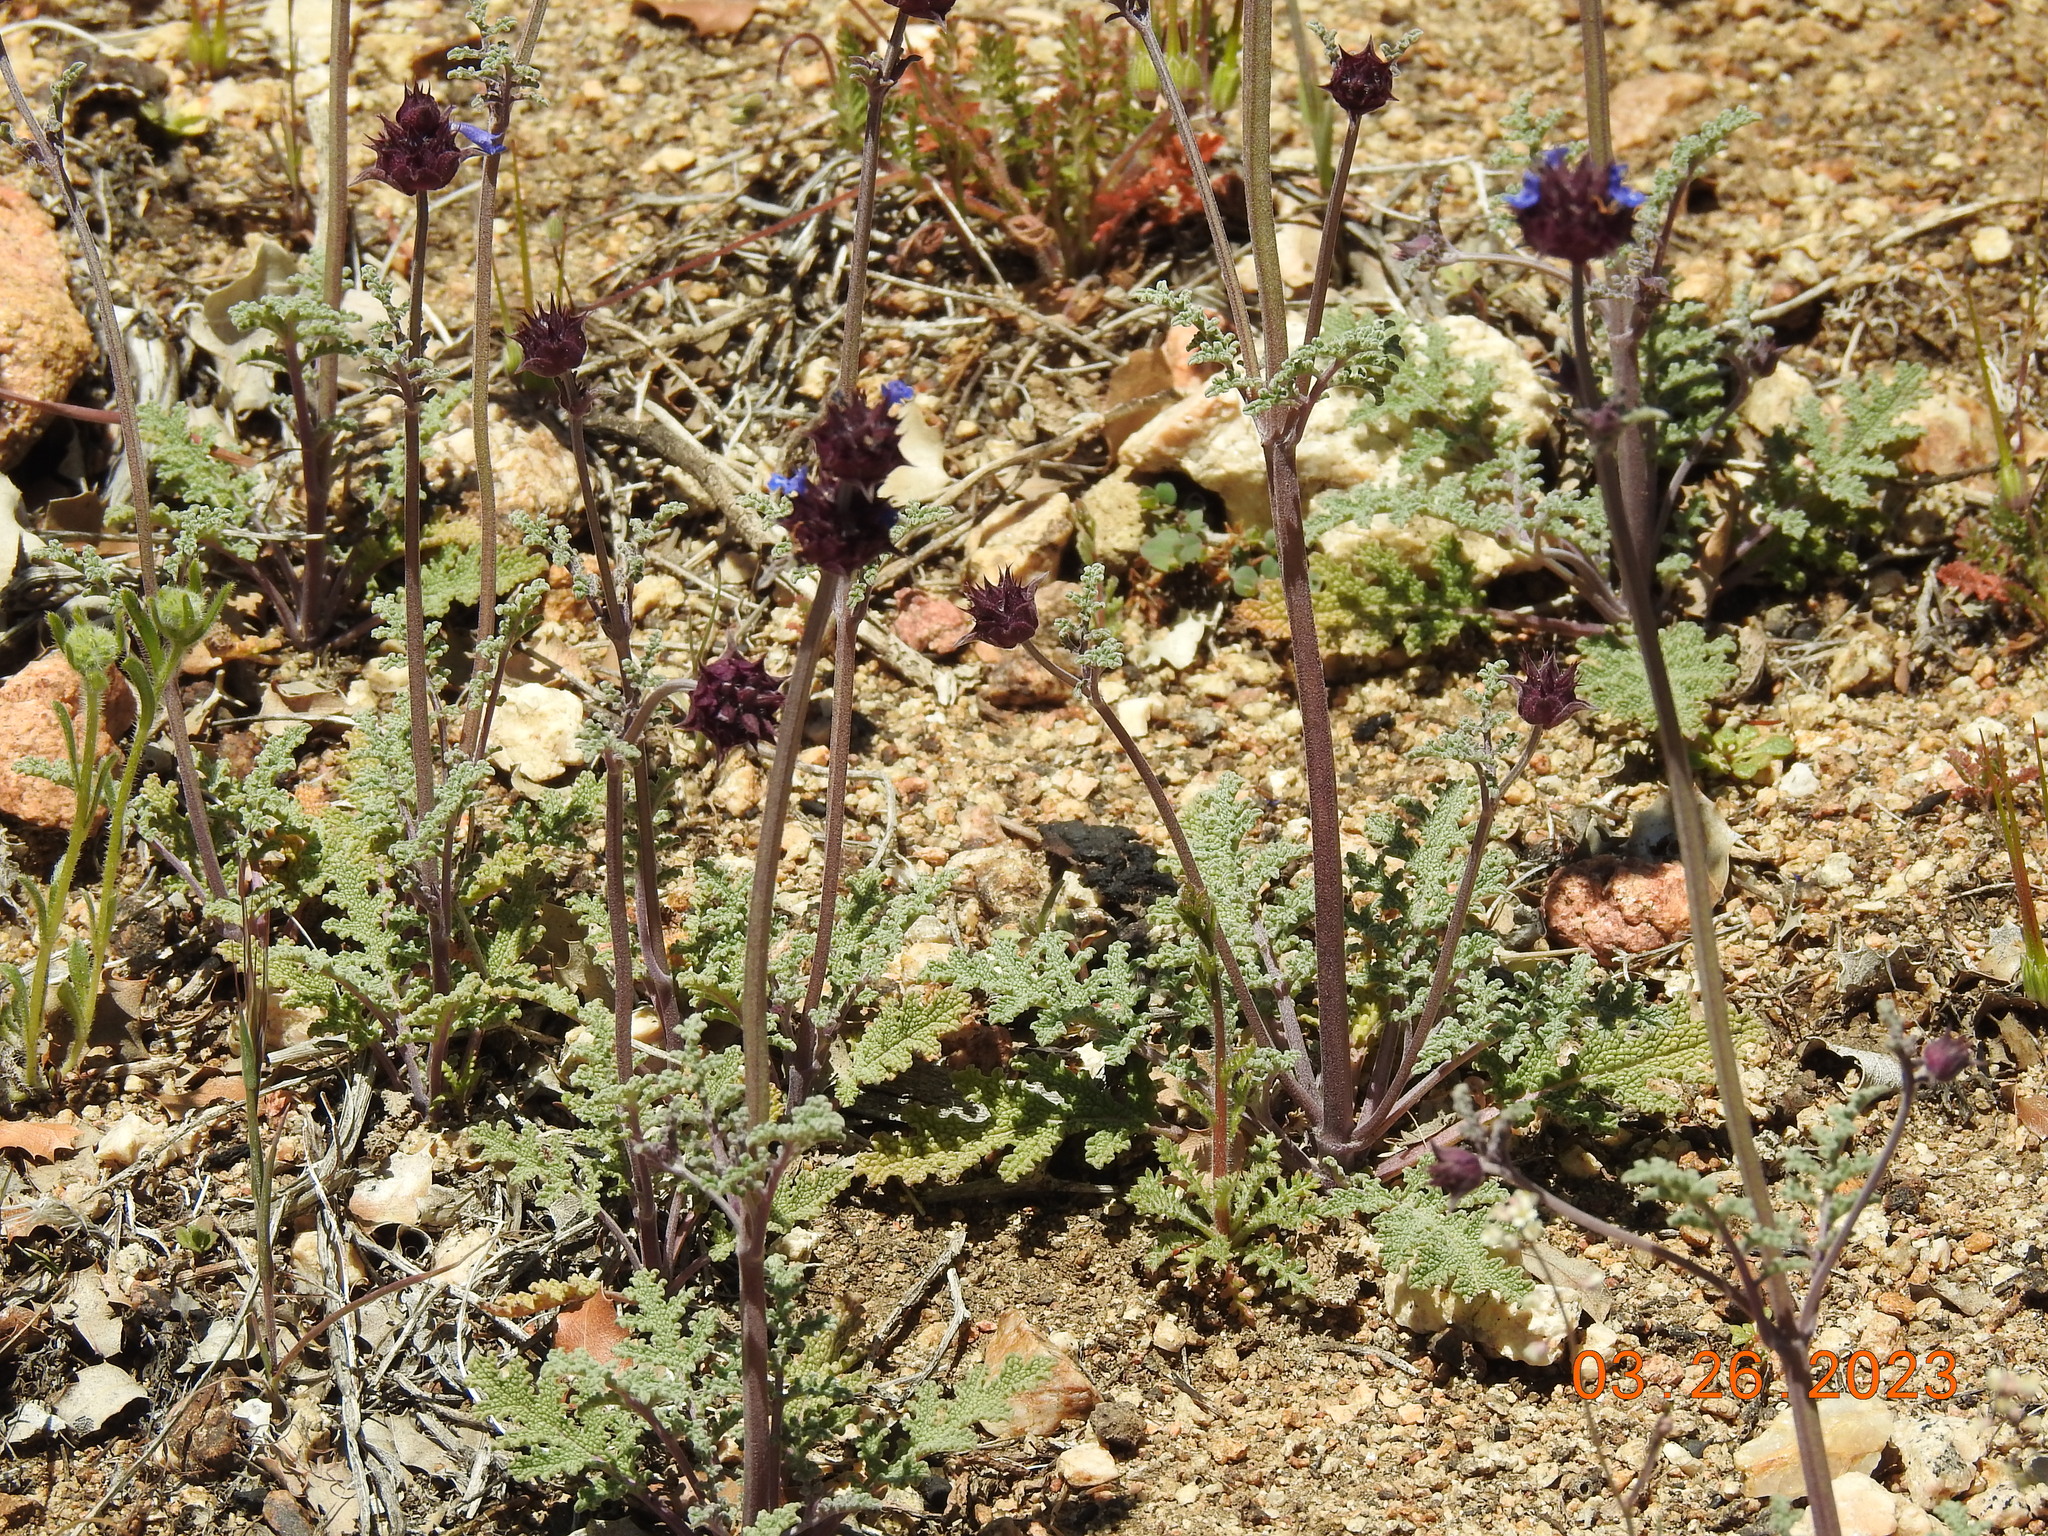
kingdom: Plantae
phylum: Tracheophyta
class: Magnoliopsida
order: Lamiales
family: Lamiaceae
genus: Salvia
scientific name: Salvia columbariae
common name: Chia
